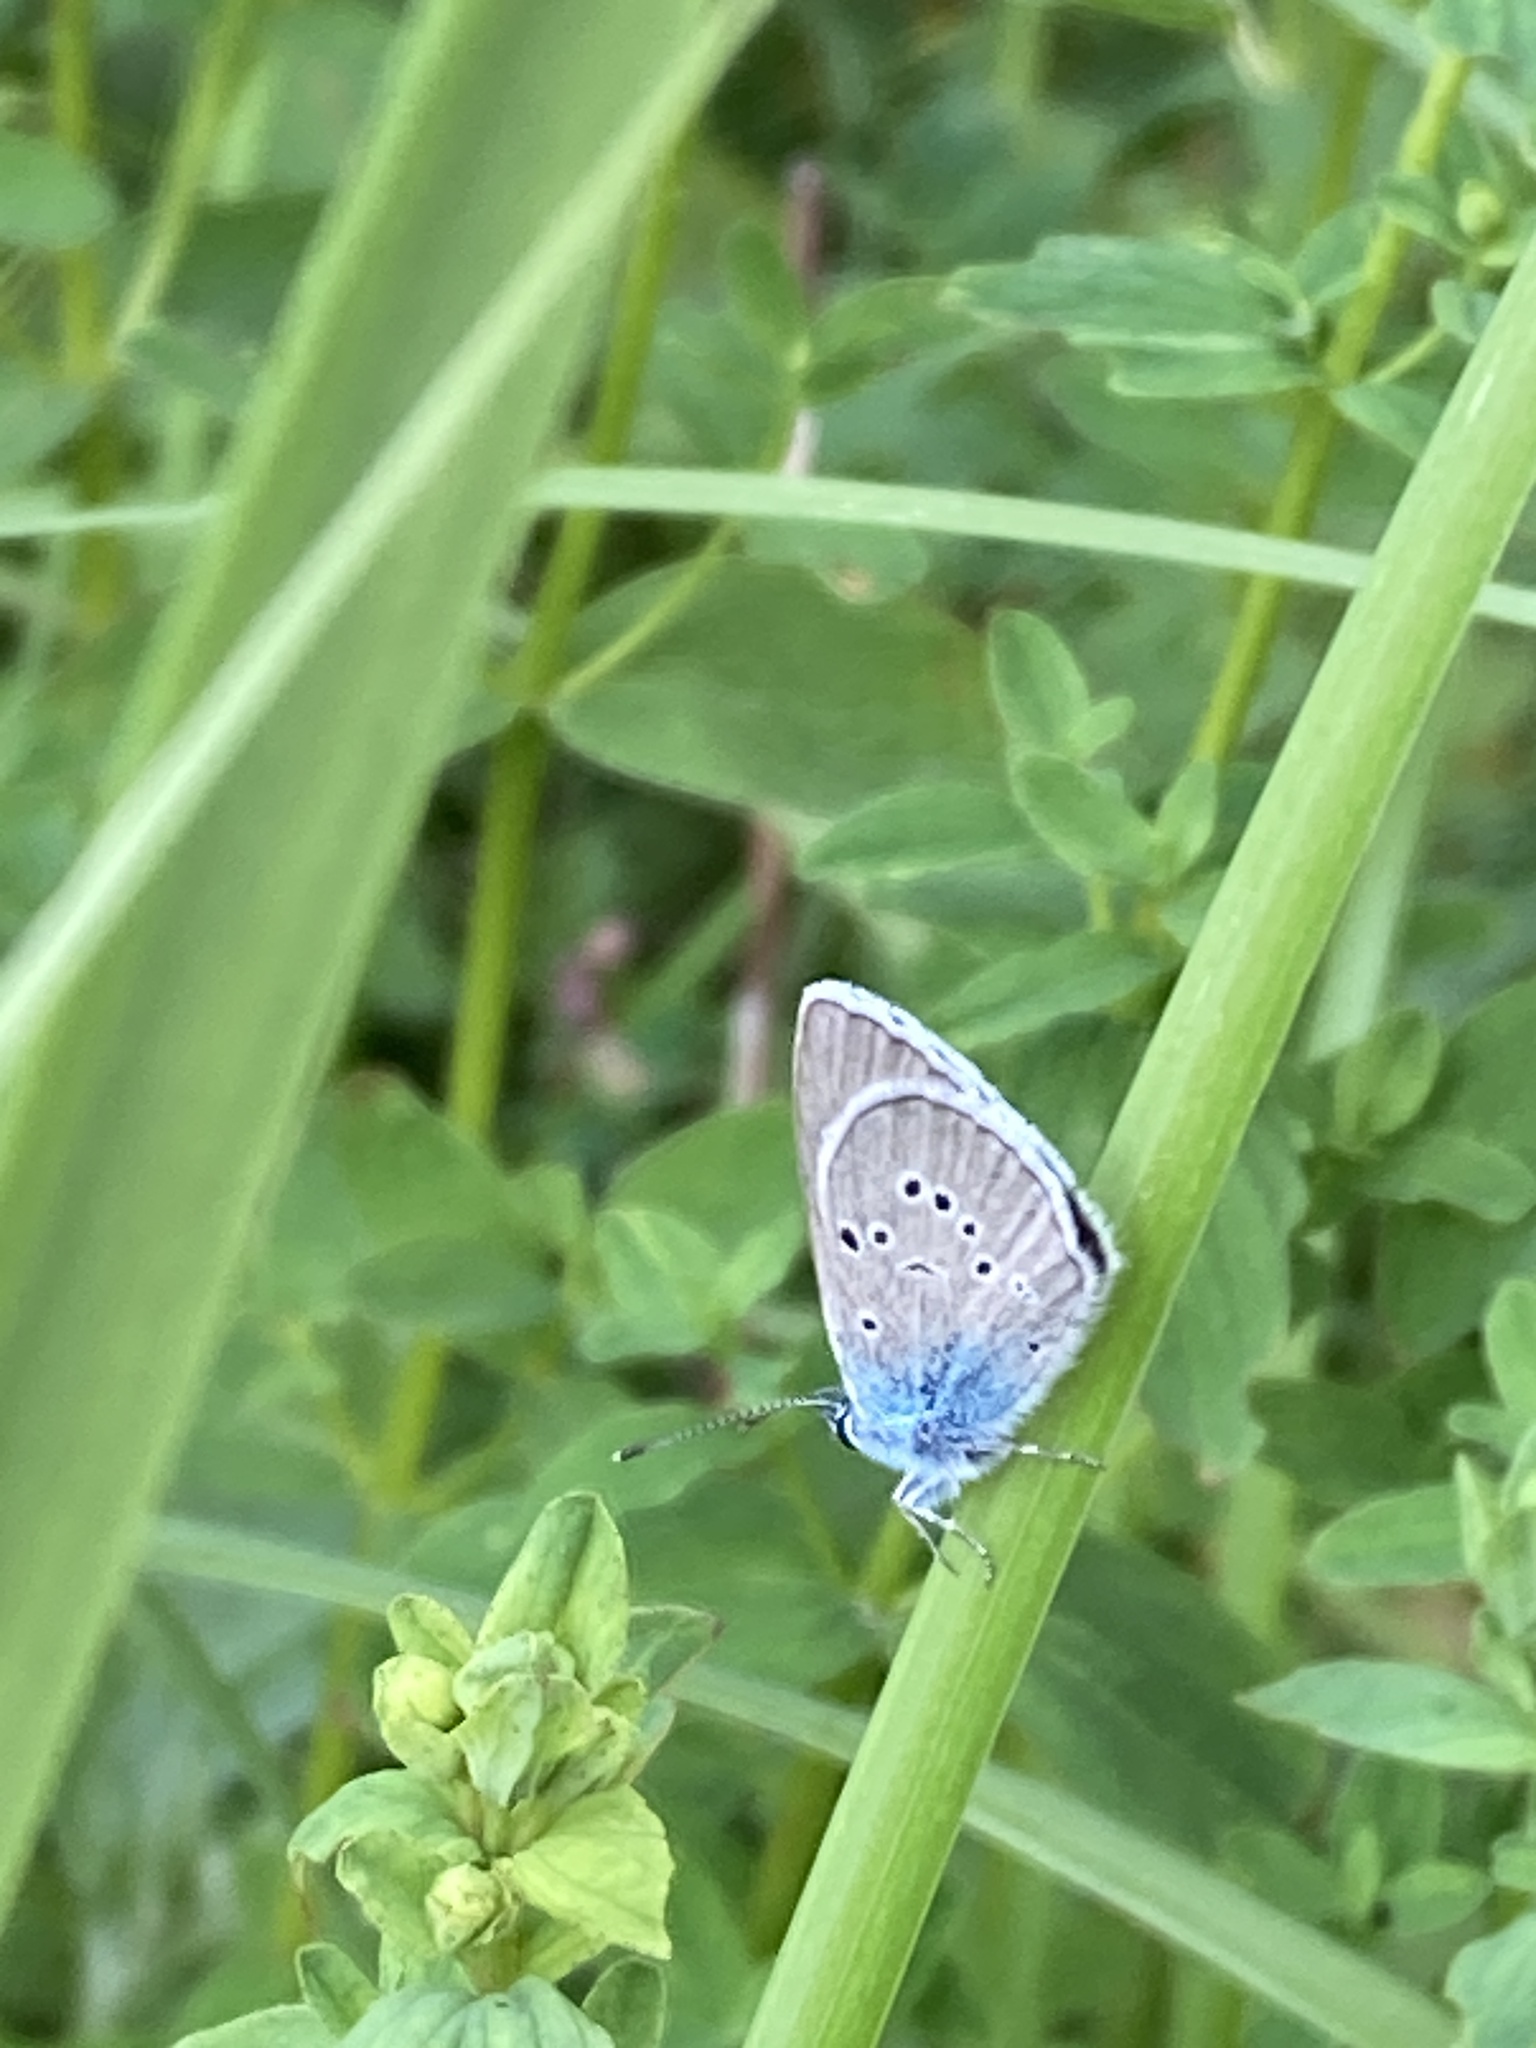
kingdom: Animalia
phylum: Arthropoda
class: Insecta
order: Lepidoptera
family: Lycaenidae
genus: Cyaniris
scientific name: Cyaniris semiargus
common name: Mazarine blue
